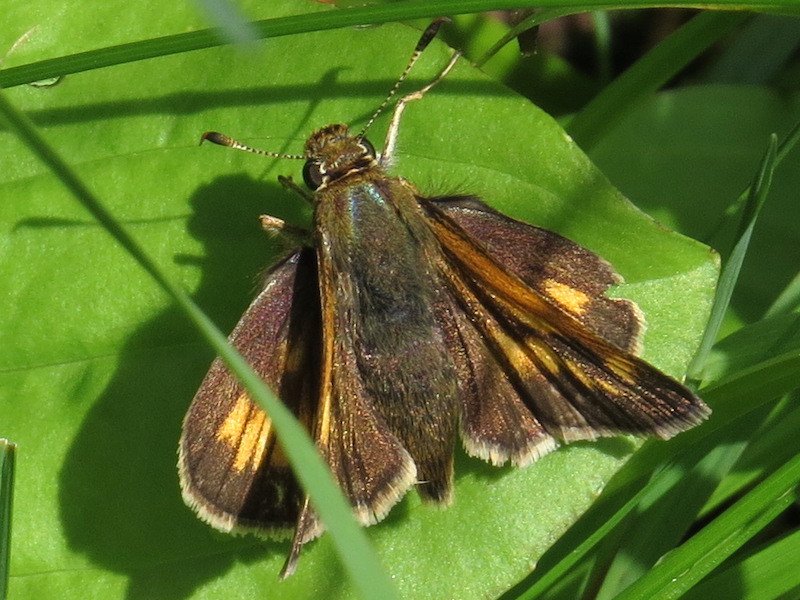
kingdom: Animalia
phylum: Arthropoda
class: Insecta
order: Lepidoptera
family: Hesperiidae
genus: Polites
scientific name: Polites coras
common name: Peck's skipper
